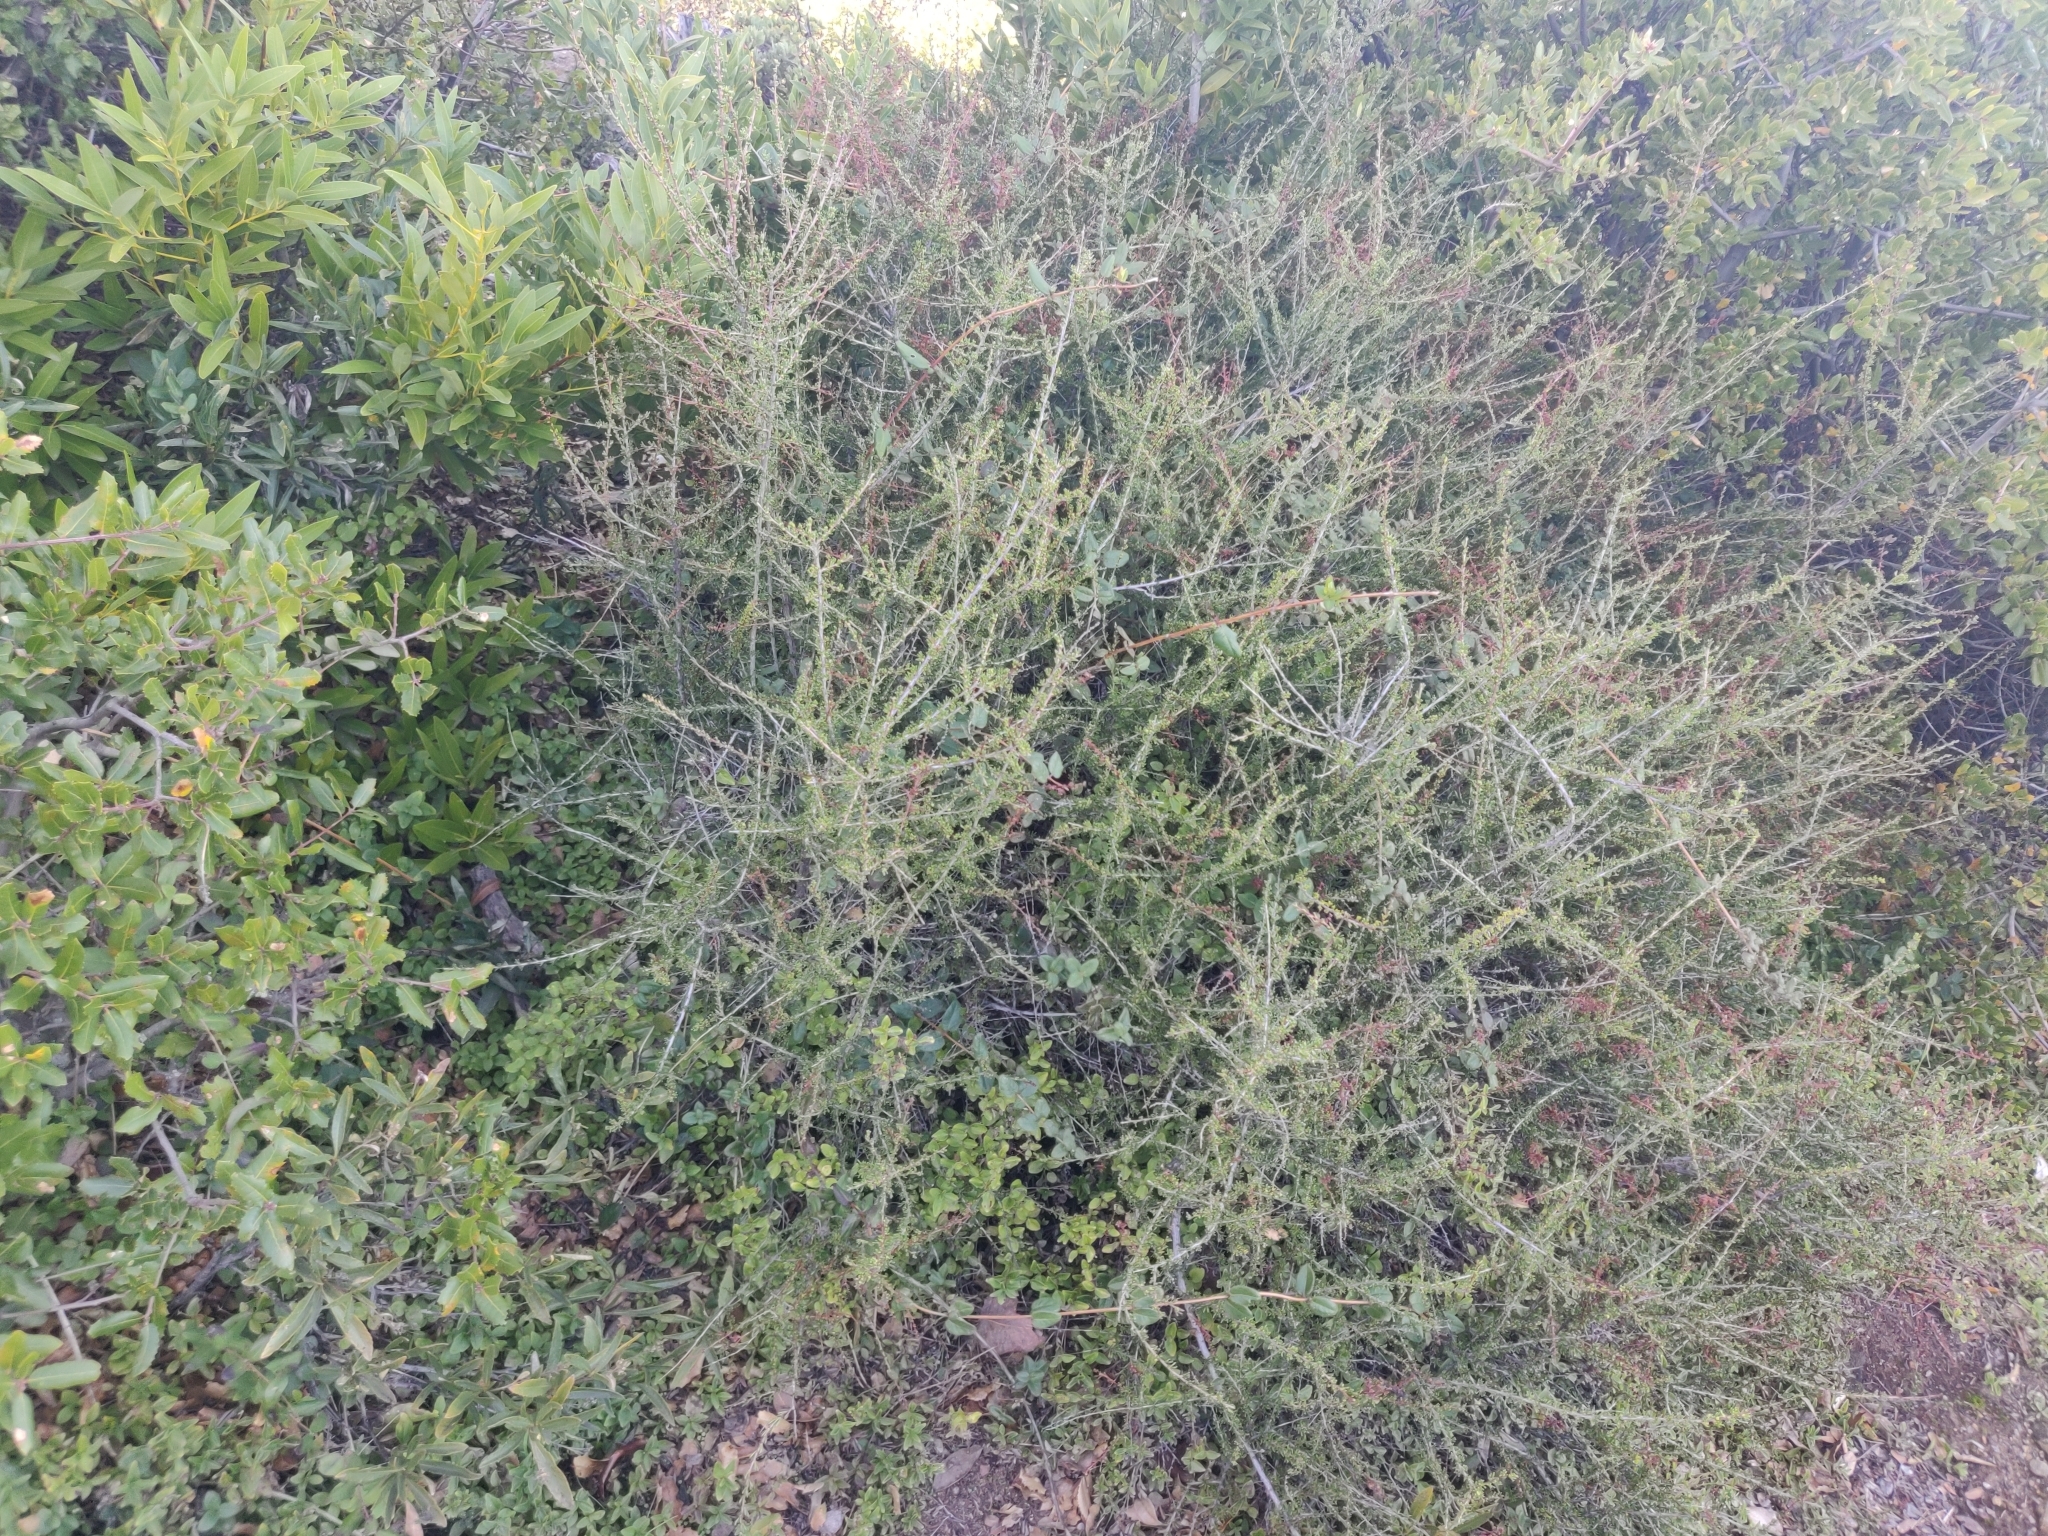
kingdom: Plantae
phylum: Tracheophyta
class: Magnoliopsida
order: Rosales
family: Rosaceae
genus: Adenostoma
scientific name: Adenostoma fasciculatum
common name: Chamise
